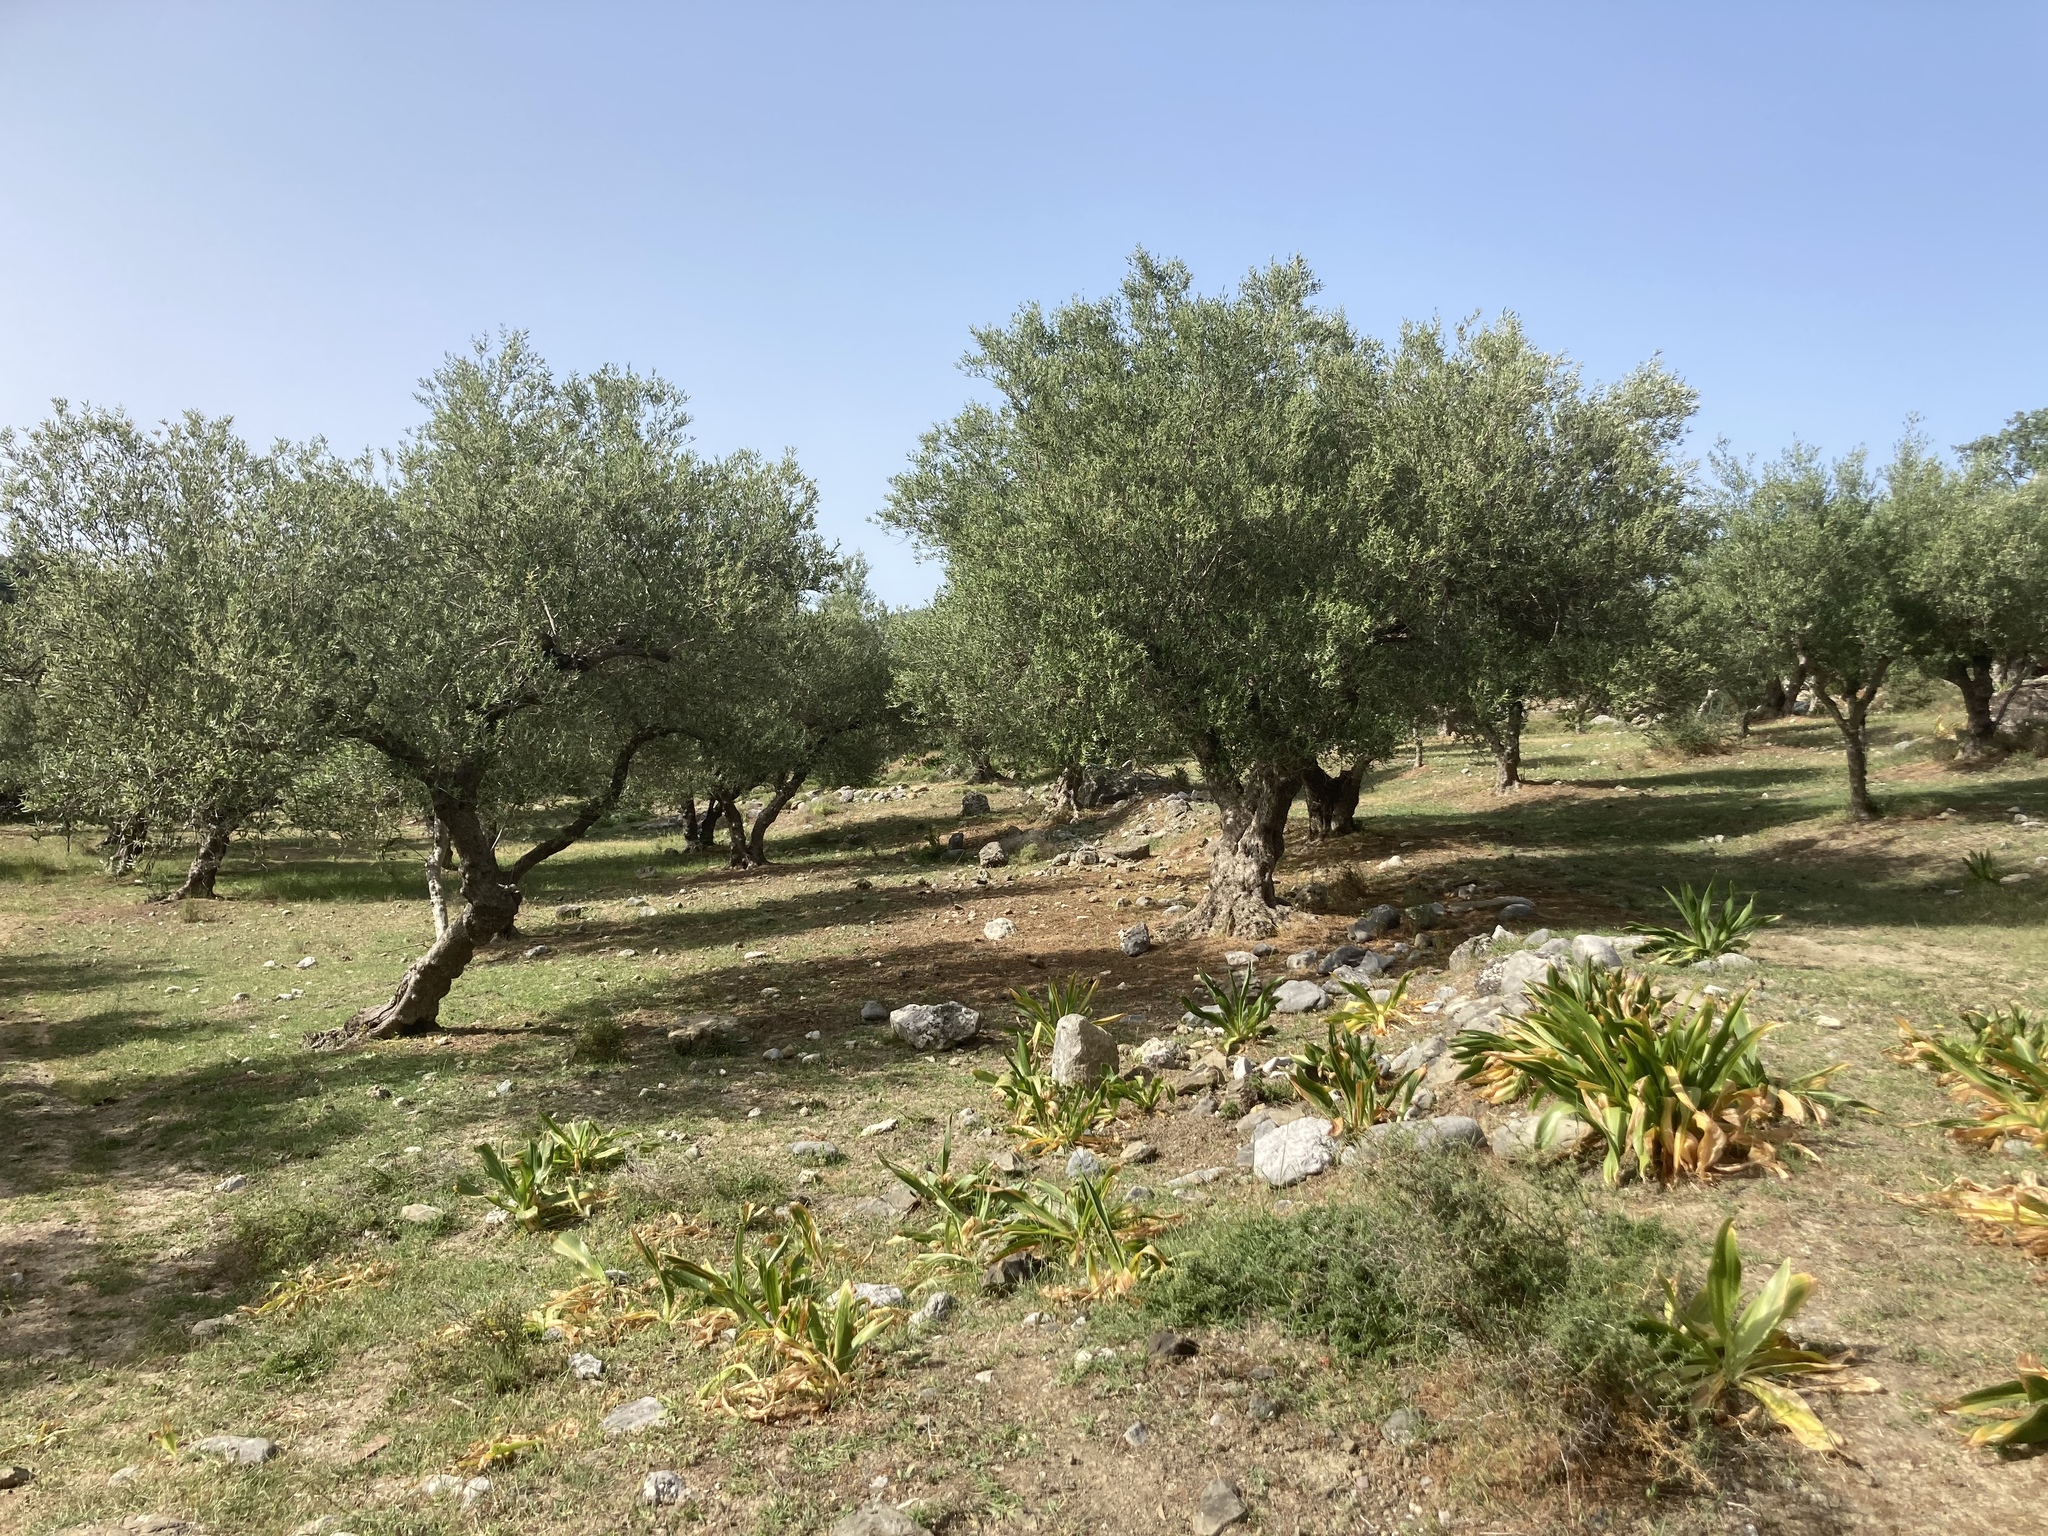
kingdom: Plantae
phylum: Tracheophyta
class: Liliopsida
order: Asparagales
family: Asparagaceae
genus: Drimia
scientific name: Drimia numidica
